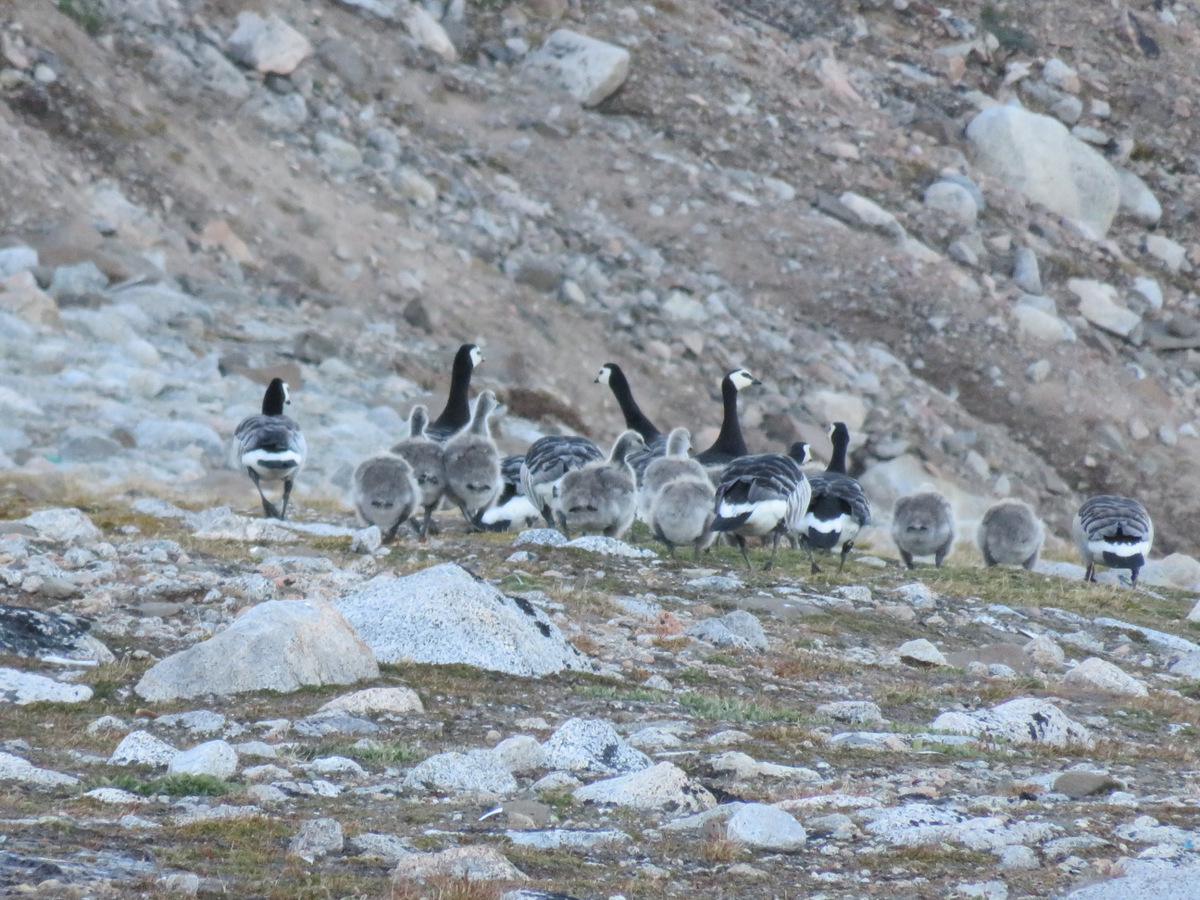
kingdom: Animalia
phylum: Chordata
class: Aves
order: Anseriformes
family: Anatidae
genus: Branta
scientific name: Branta leucopsis
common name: Barnacle goose
